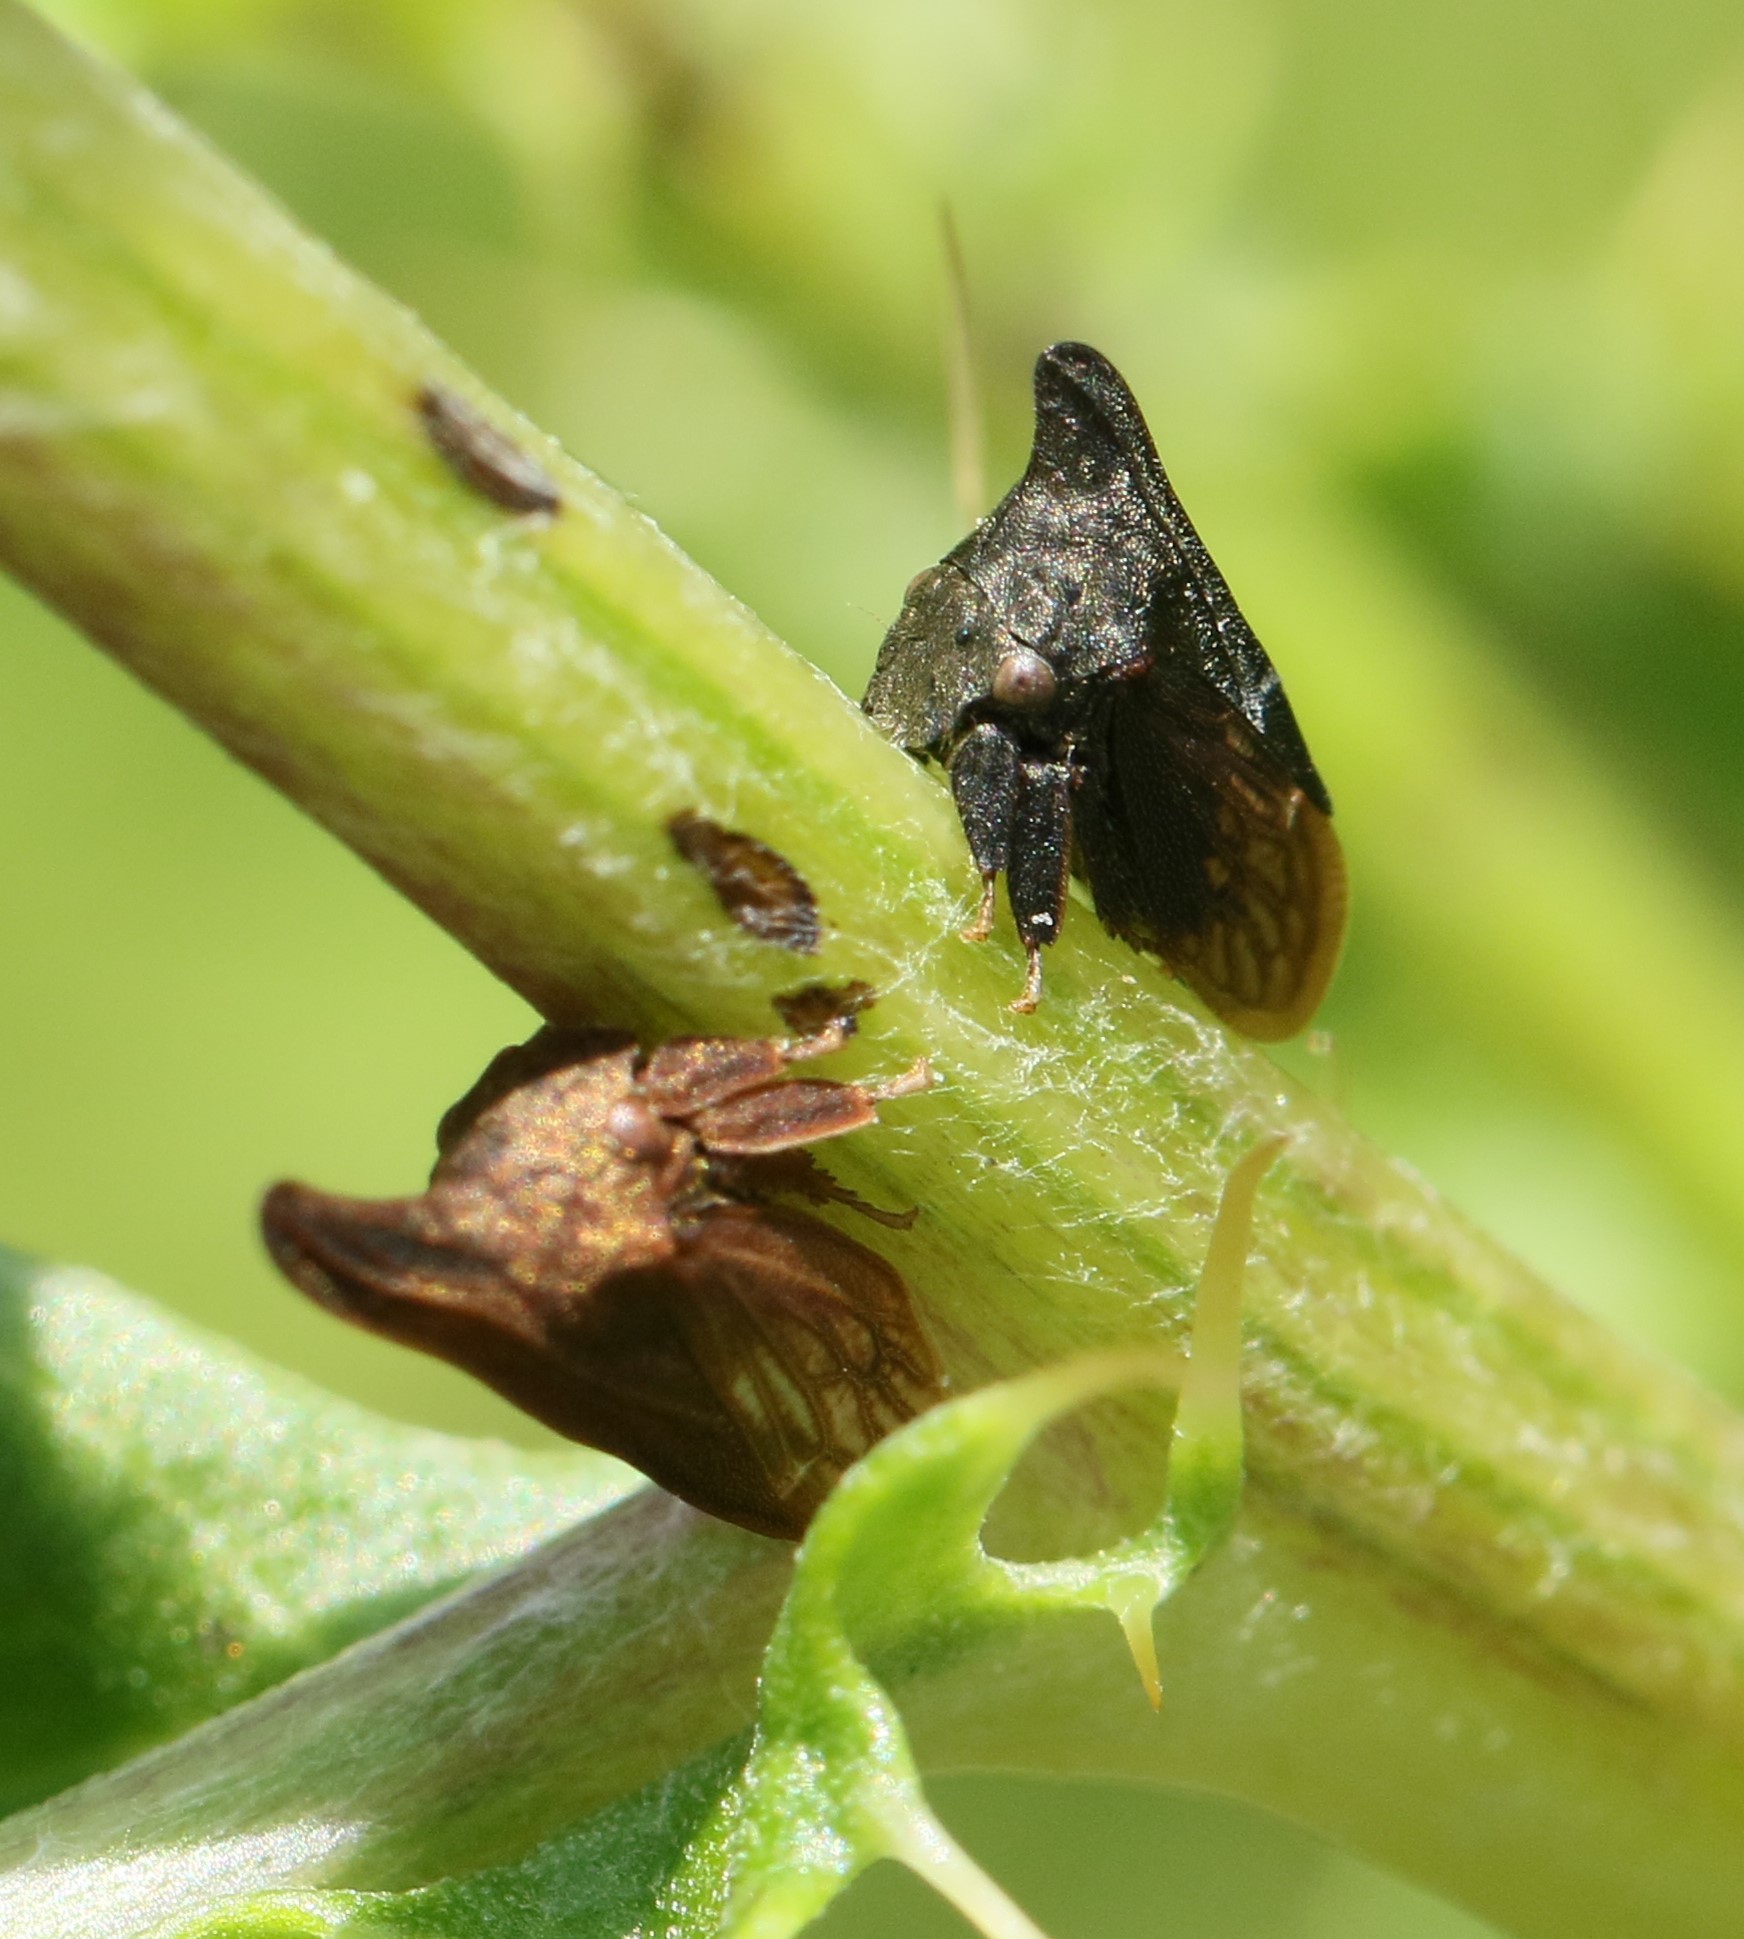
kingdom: Animalia
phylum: Arthropoda
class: Insecta
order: Hemiptera
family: Membracidae
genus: Enchenopa
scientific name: Enchenopa latipes
